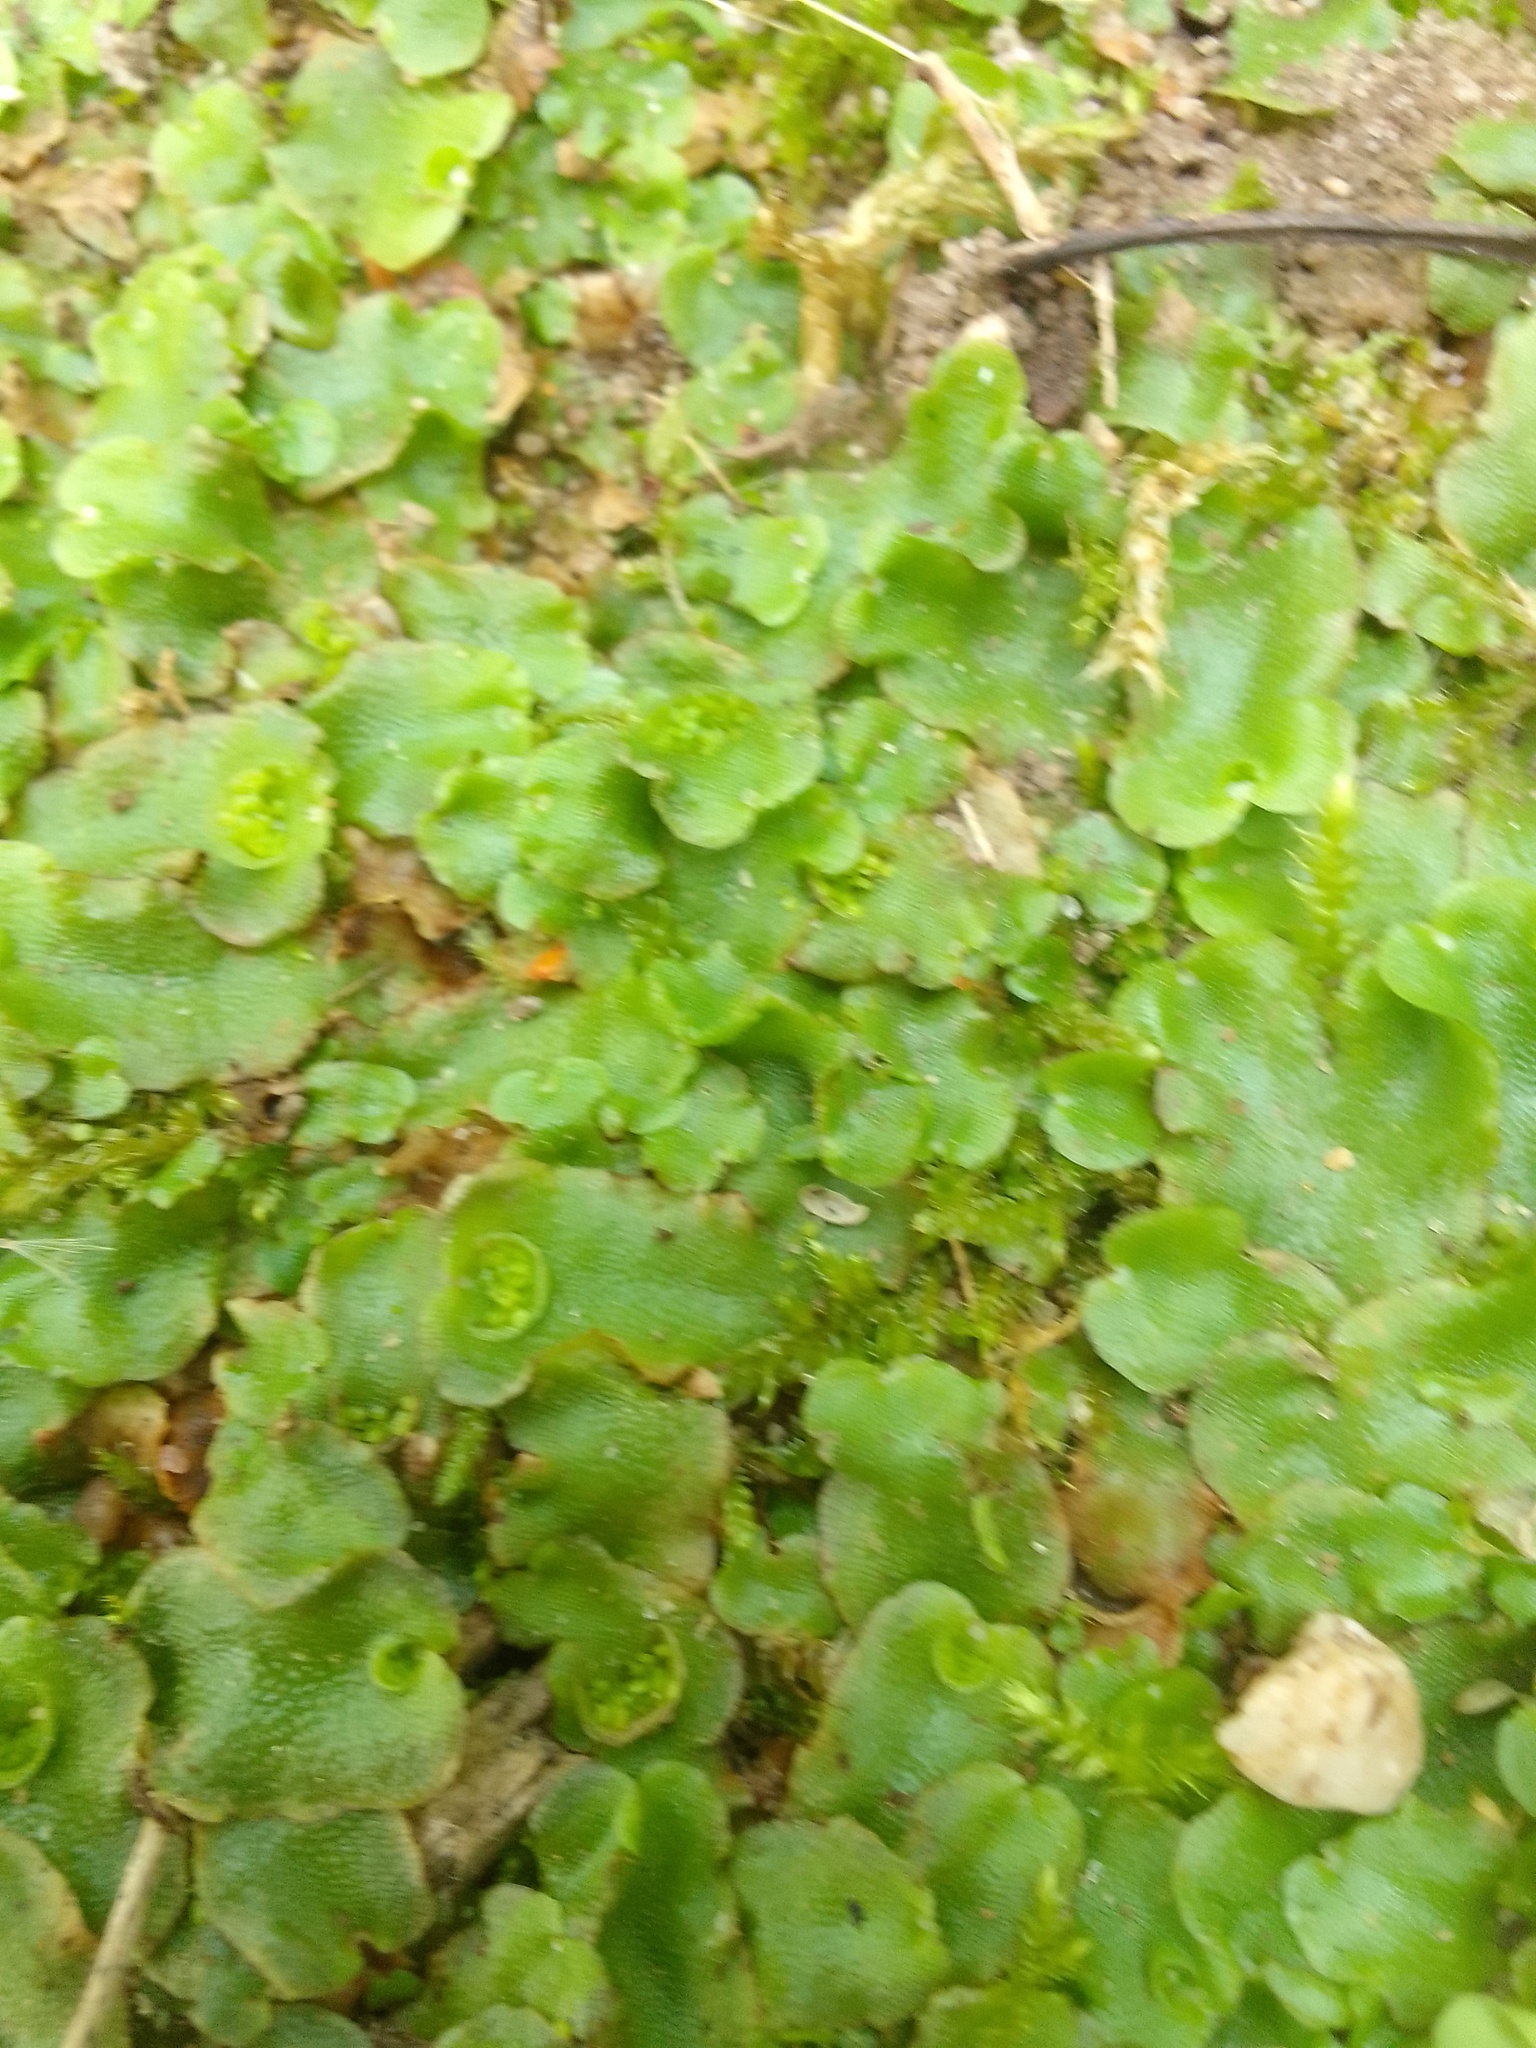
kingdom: Plantae
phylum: Marchantiophyta
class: Marchantiopsida
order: Lunulariales
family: Lunulariaceae
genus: Lunularia
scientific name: Lunularia cruciata
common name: Crescent-cup liverwort
